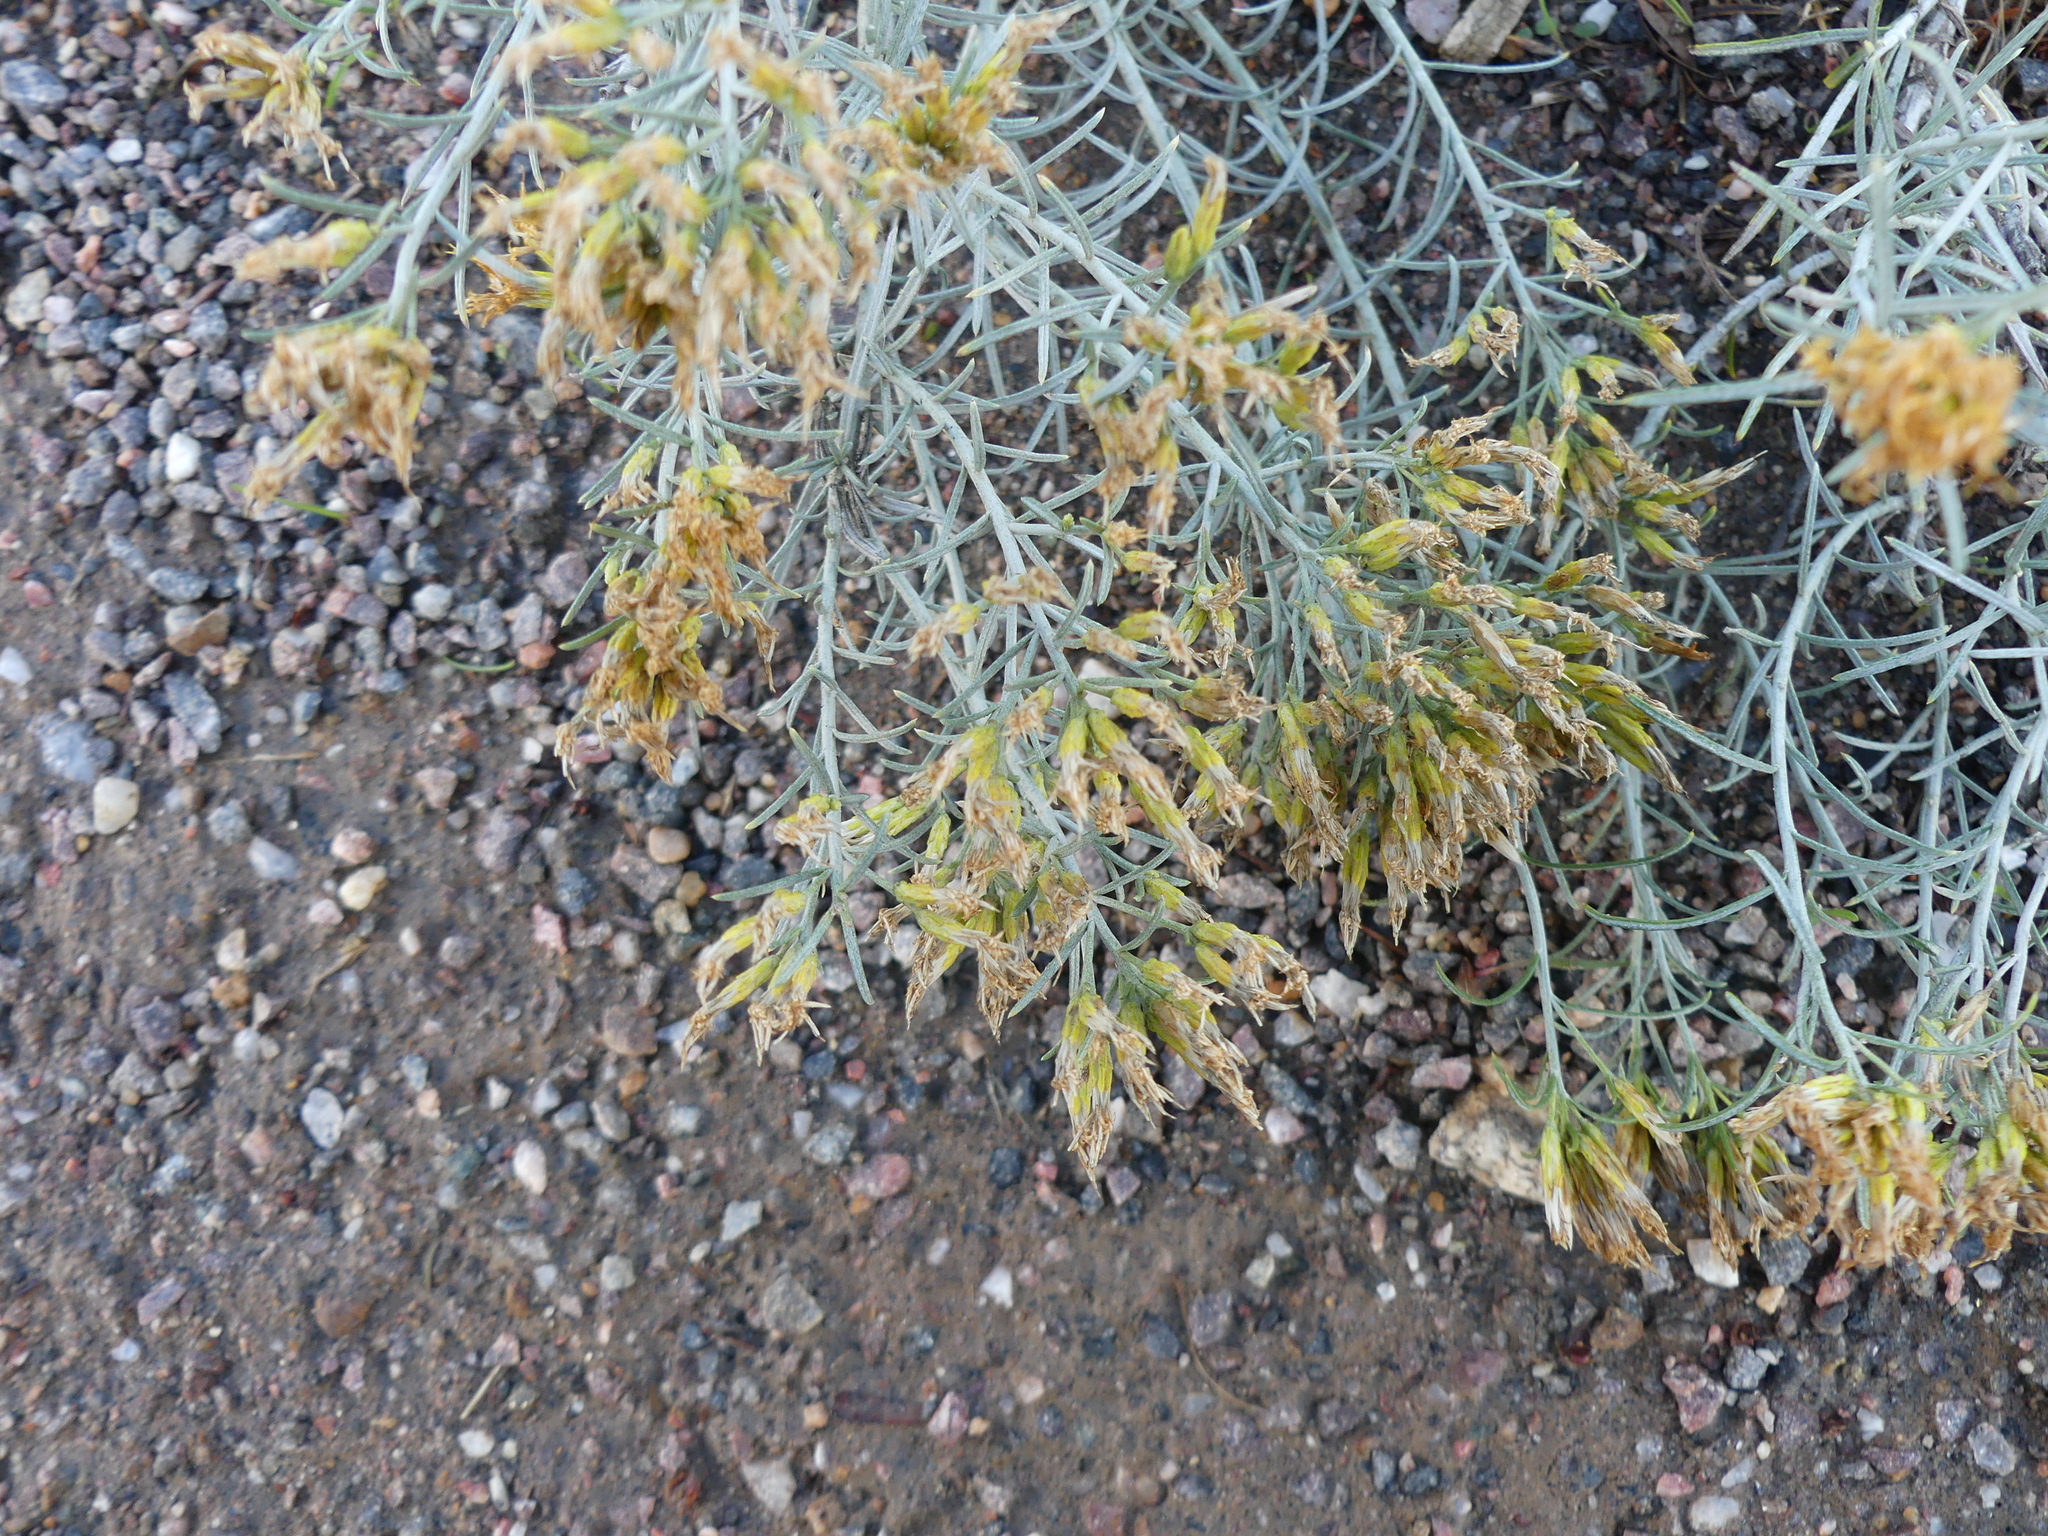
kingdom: Plantae
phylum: Tracheophyta
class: Magnoliopsida
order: Asterales
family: Asteraceae
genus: Ericameria
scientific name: Ericameria nauseosa
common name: Rubber rabbitbrush
